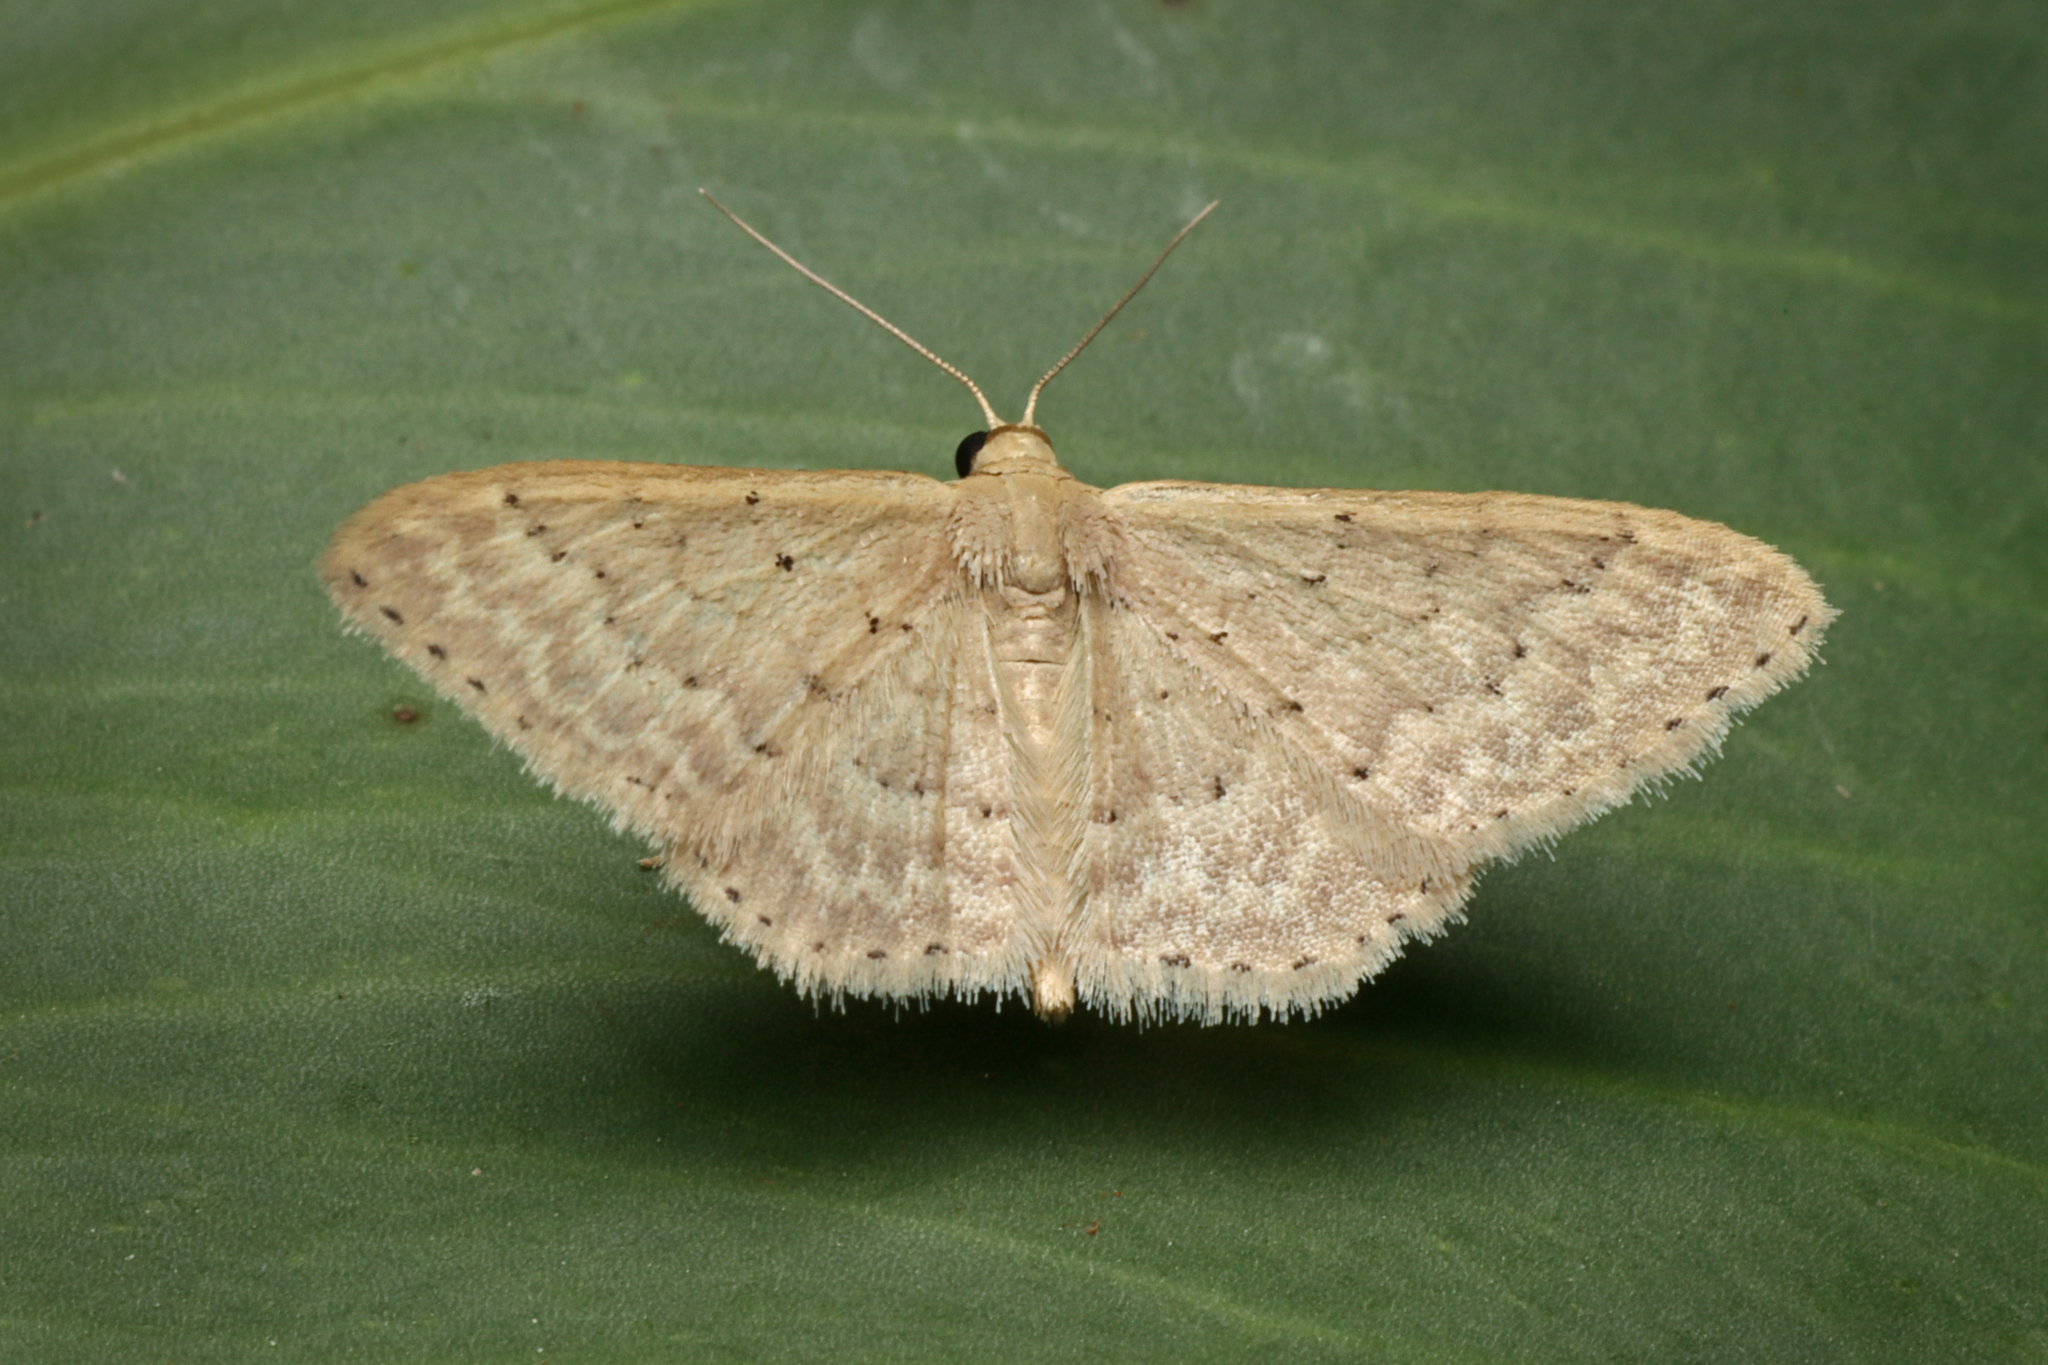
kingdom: Animalia
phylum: Arthropoda
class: Insecta
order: Lepidoptera
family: Geometridae
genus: Idaea
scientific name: Idaea philocosma
